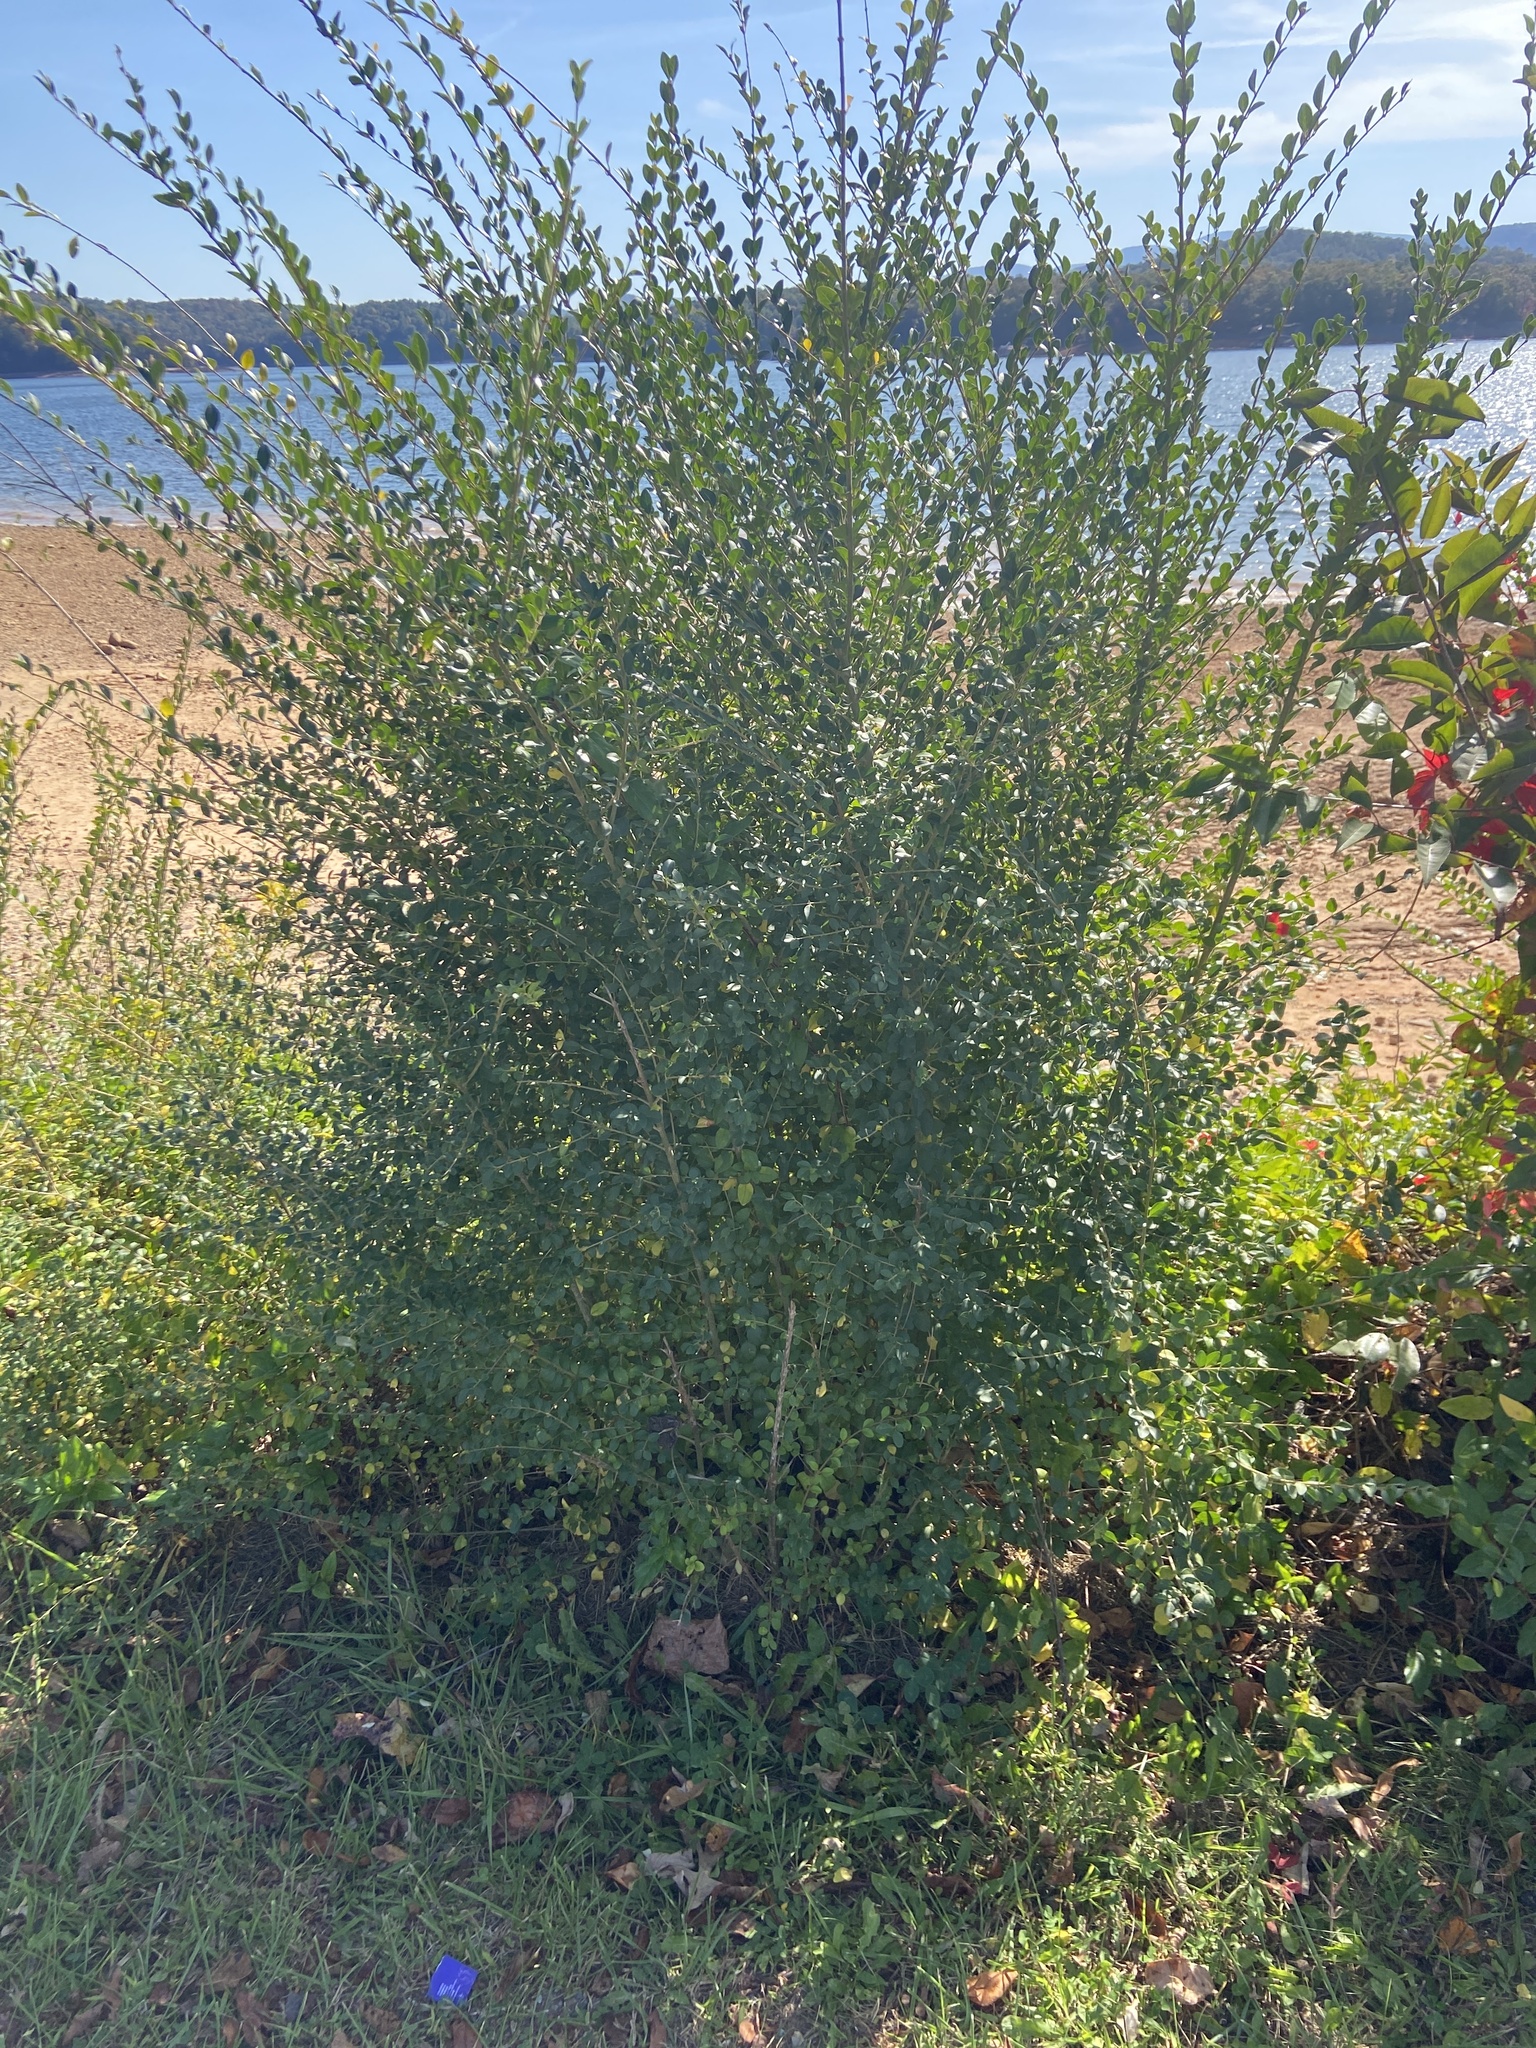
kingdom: Plantae
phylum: Tracheophyta
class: Magnoliopsida
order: Lamiales
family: Oleaceae
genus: Ligustrum
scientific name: Ligustrum sinense
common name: Chinese privet
